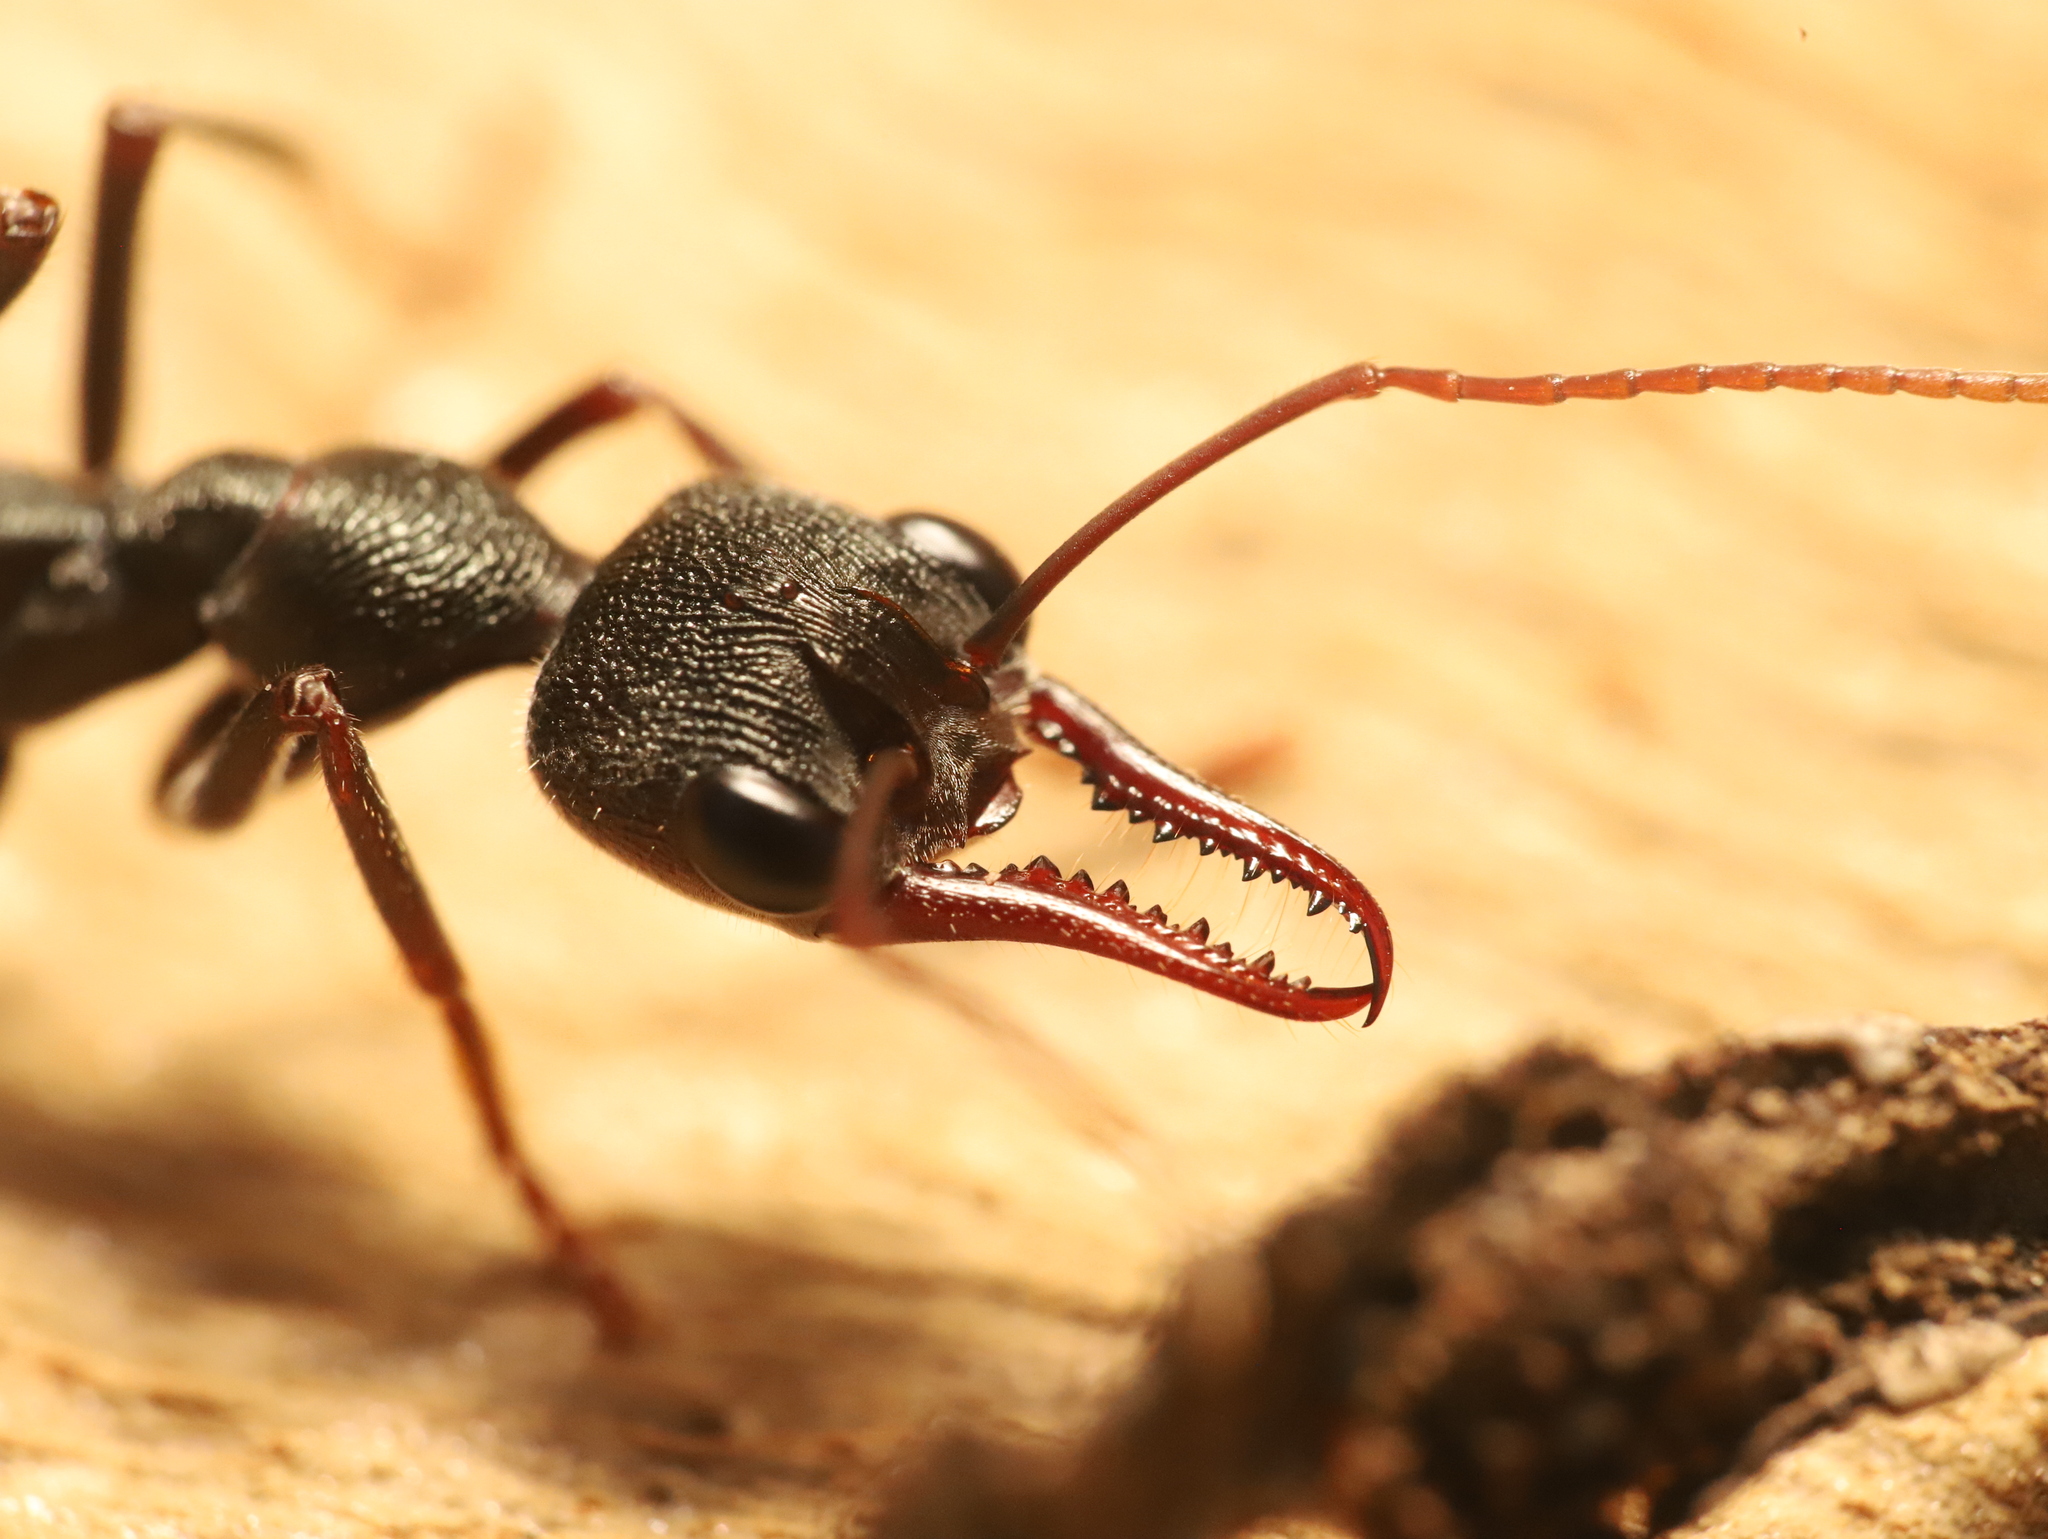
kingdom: Animalia
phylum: Arthropoda
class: Insecta
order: Hymenoptera
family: Formicidae
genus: Myrmecia
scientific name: Myrmecia pyriformis
